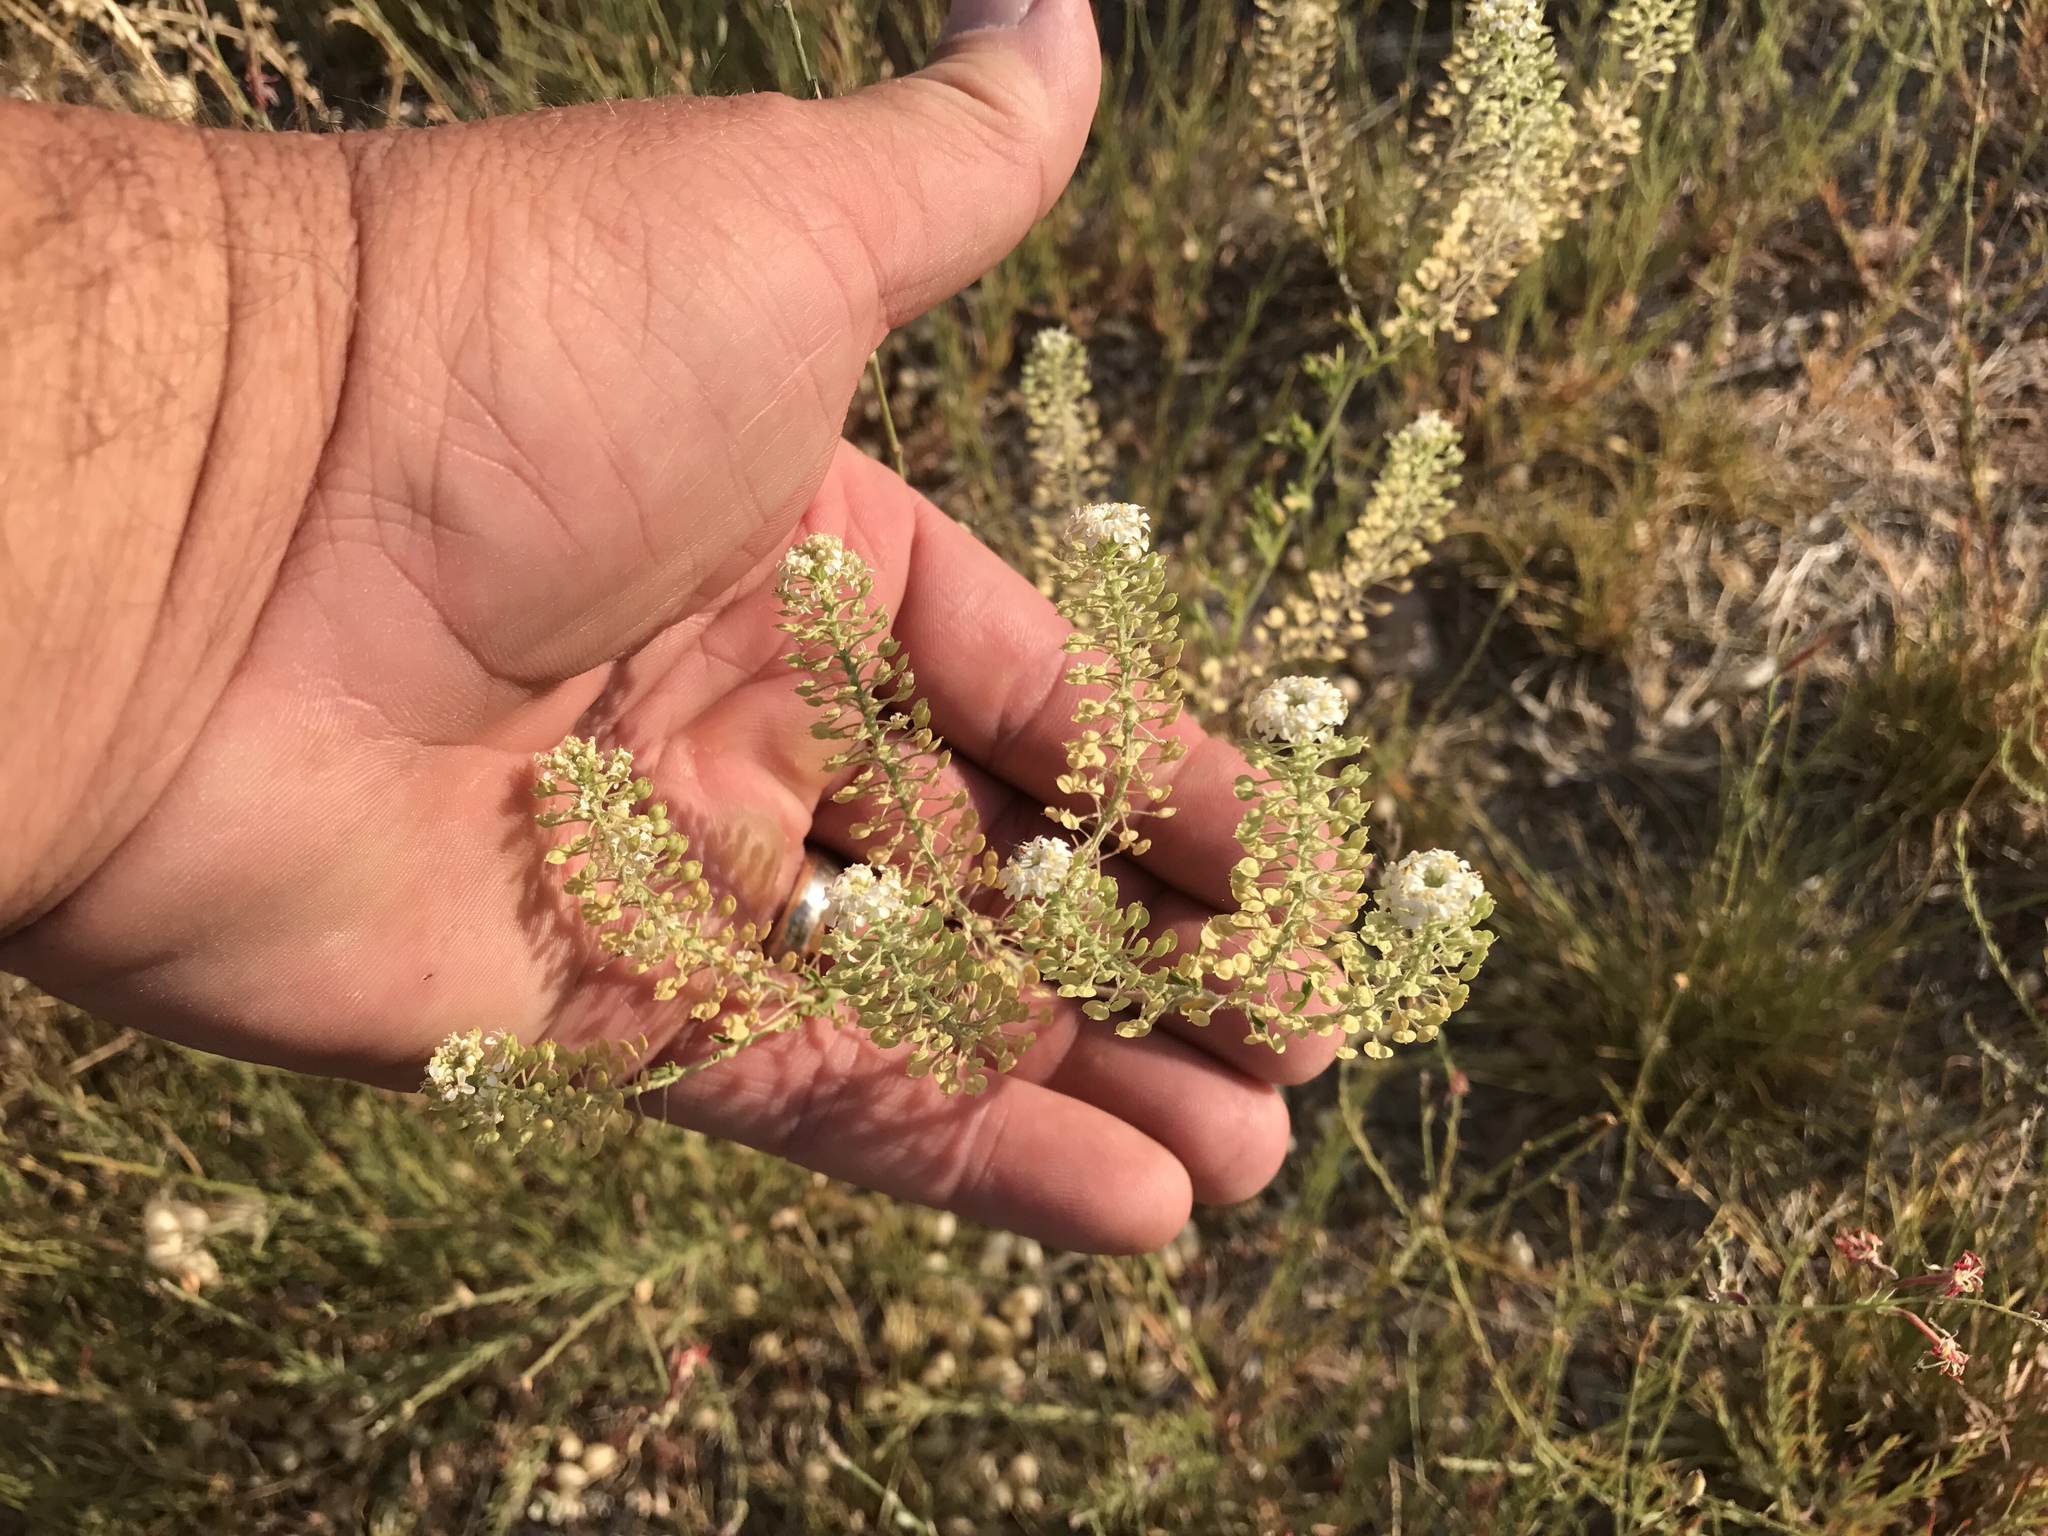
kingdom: Plantae
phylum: Tracheophyta
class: Magnoliopsida
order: Brassicales
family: Brassicaceae
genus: Lepidium
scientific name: Lepidium thurberi
